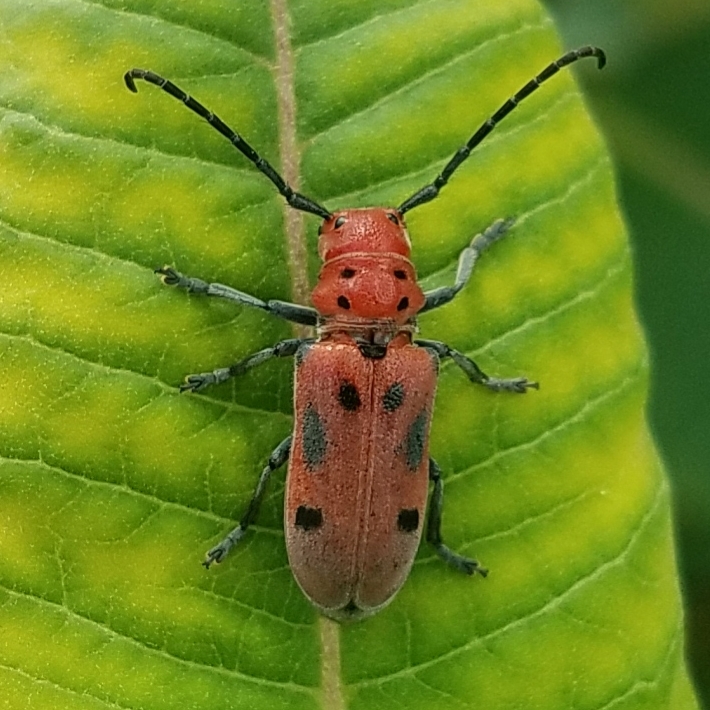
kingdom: Animalia
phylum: Arthropoda
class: Insecta
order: Coleoptera
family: Cerambycidae
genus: Tetraopes
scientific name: Tetraopes tetrophthalmus
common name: Red milkweed beetle
